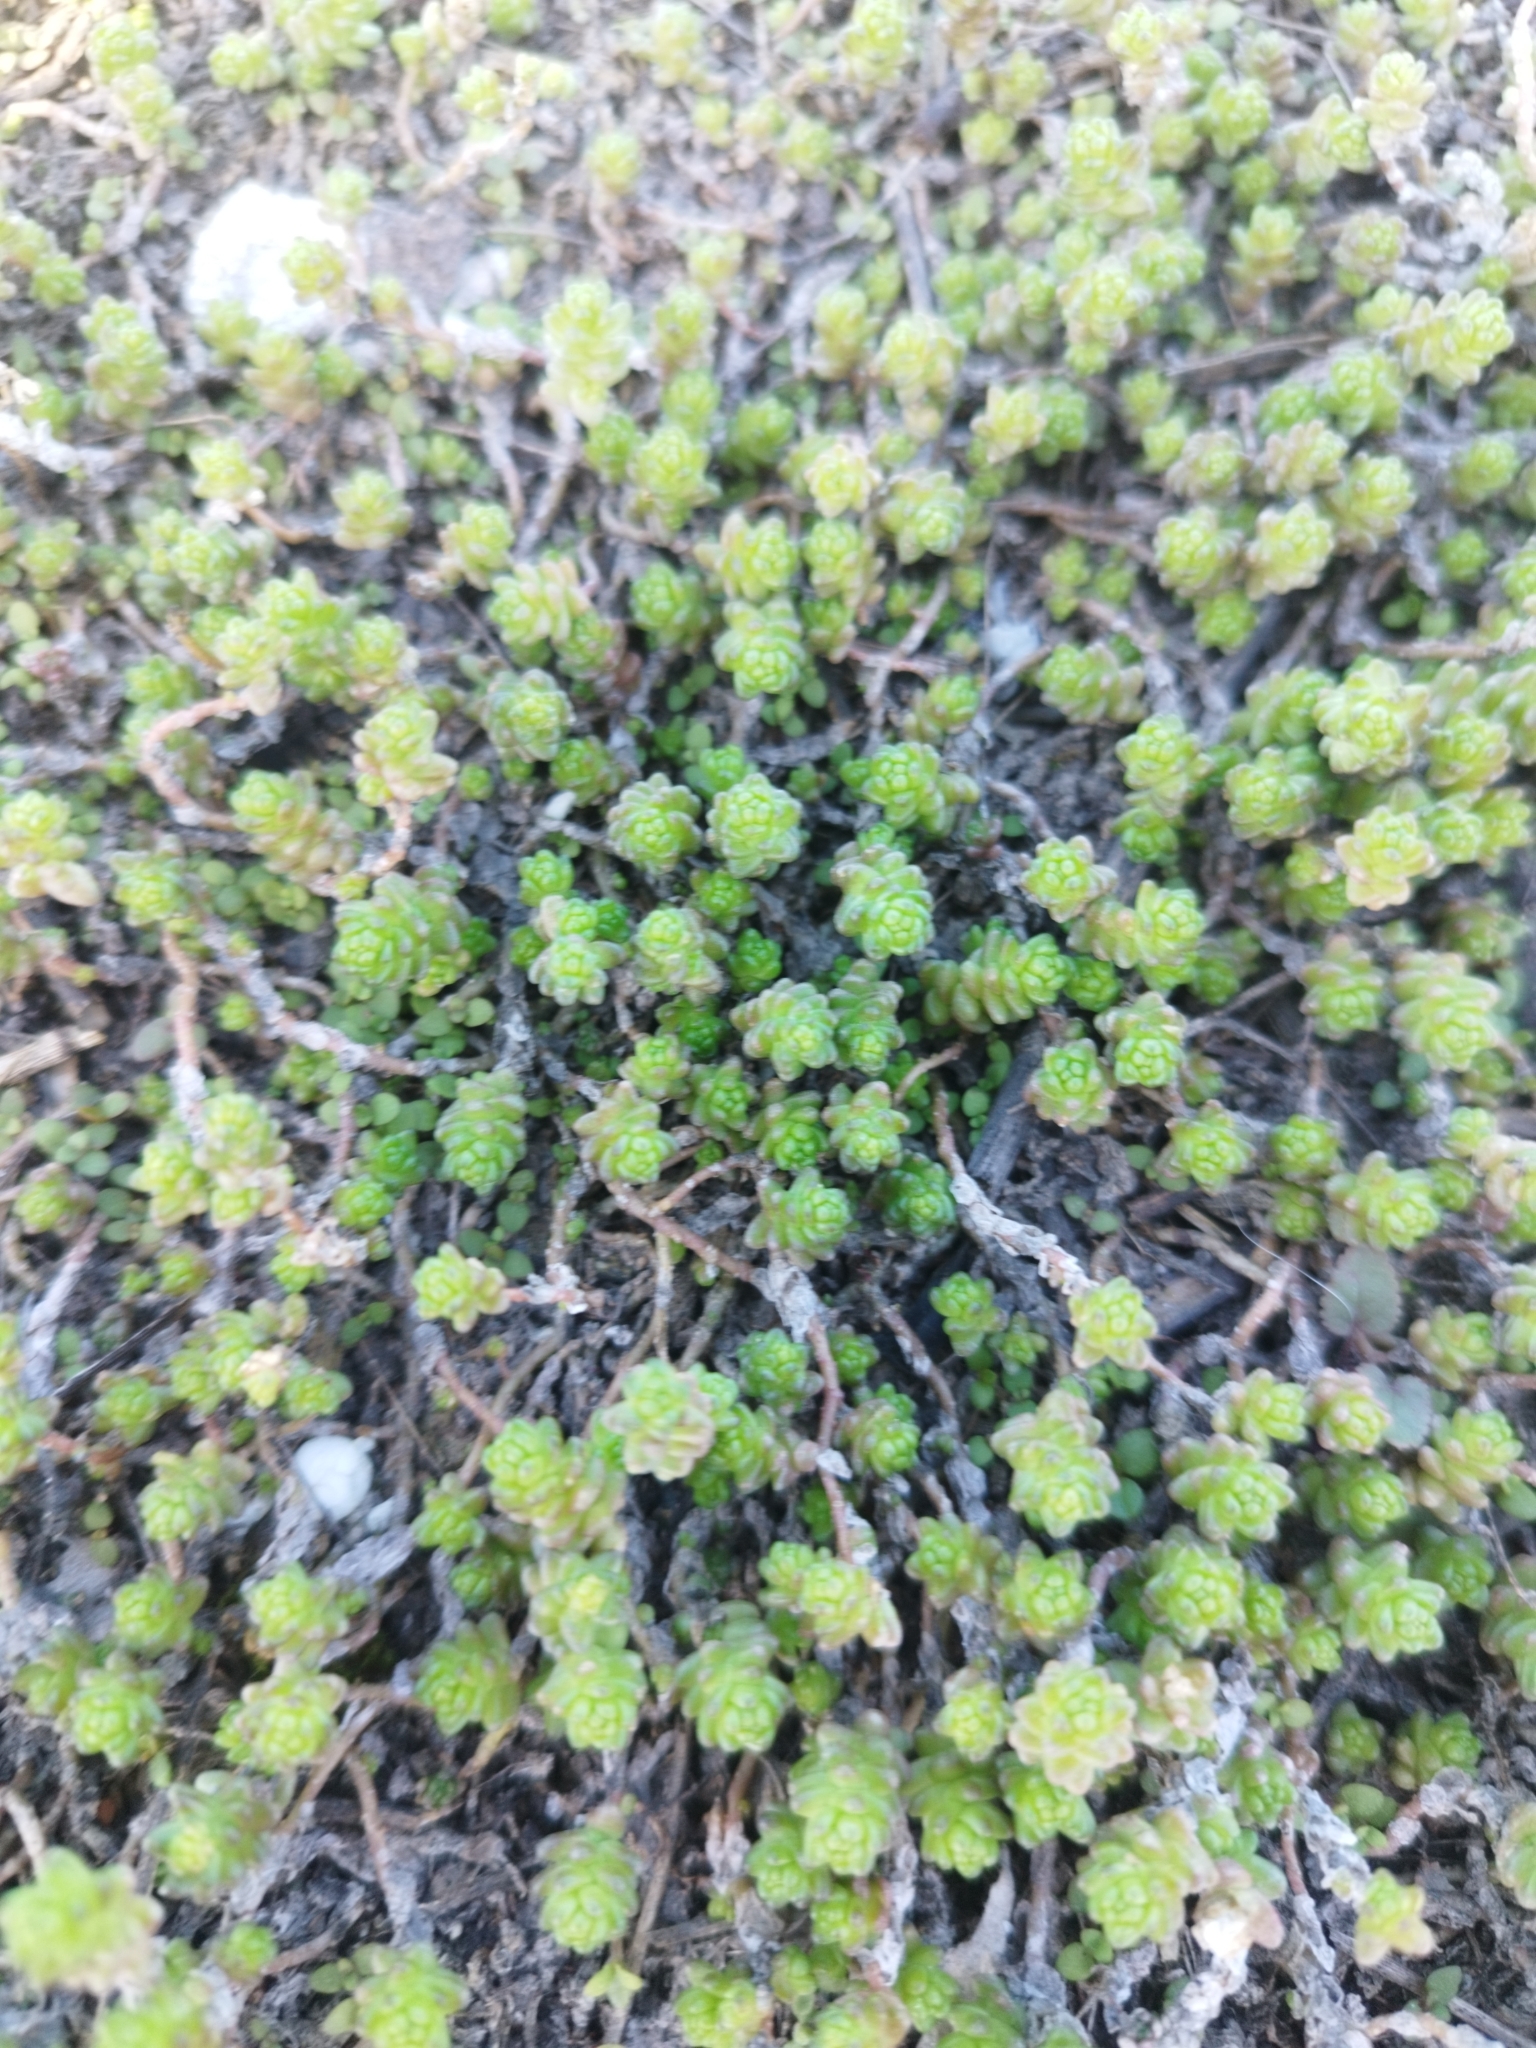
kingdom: Plantae
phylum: Tracheophyta
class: Magnoliopsida
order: Saxifragales
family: Crassulaceae
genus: Sedum
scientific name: Sedum acre
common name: Biting stonecrop
